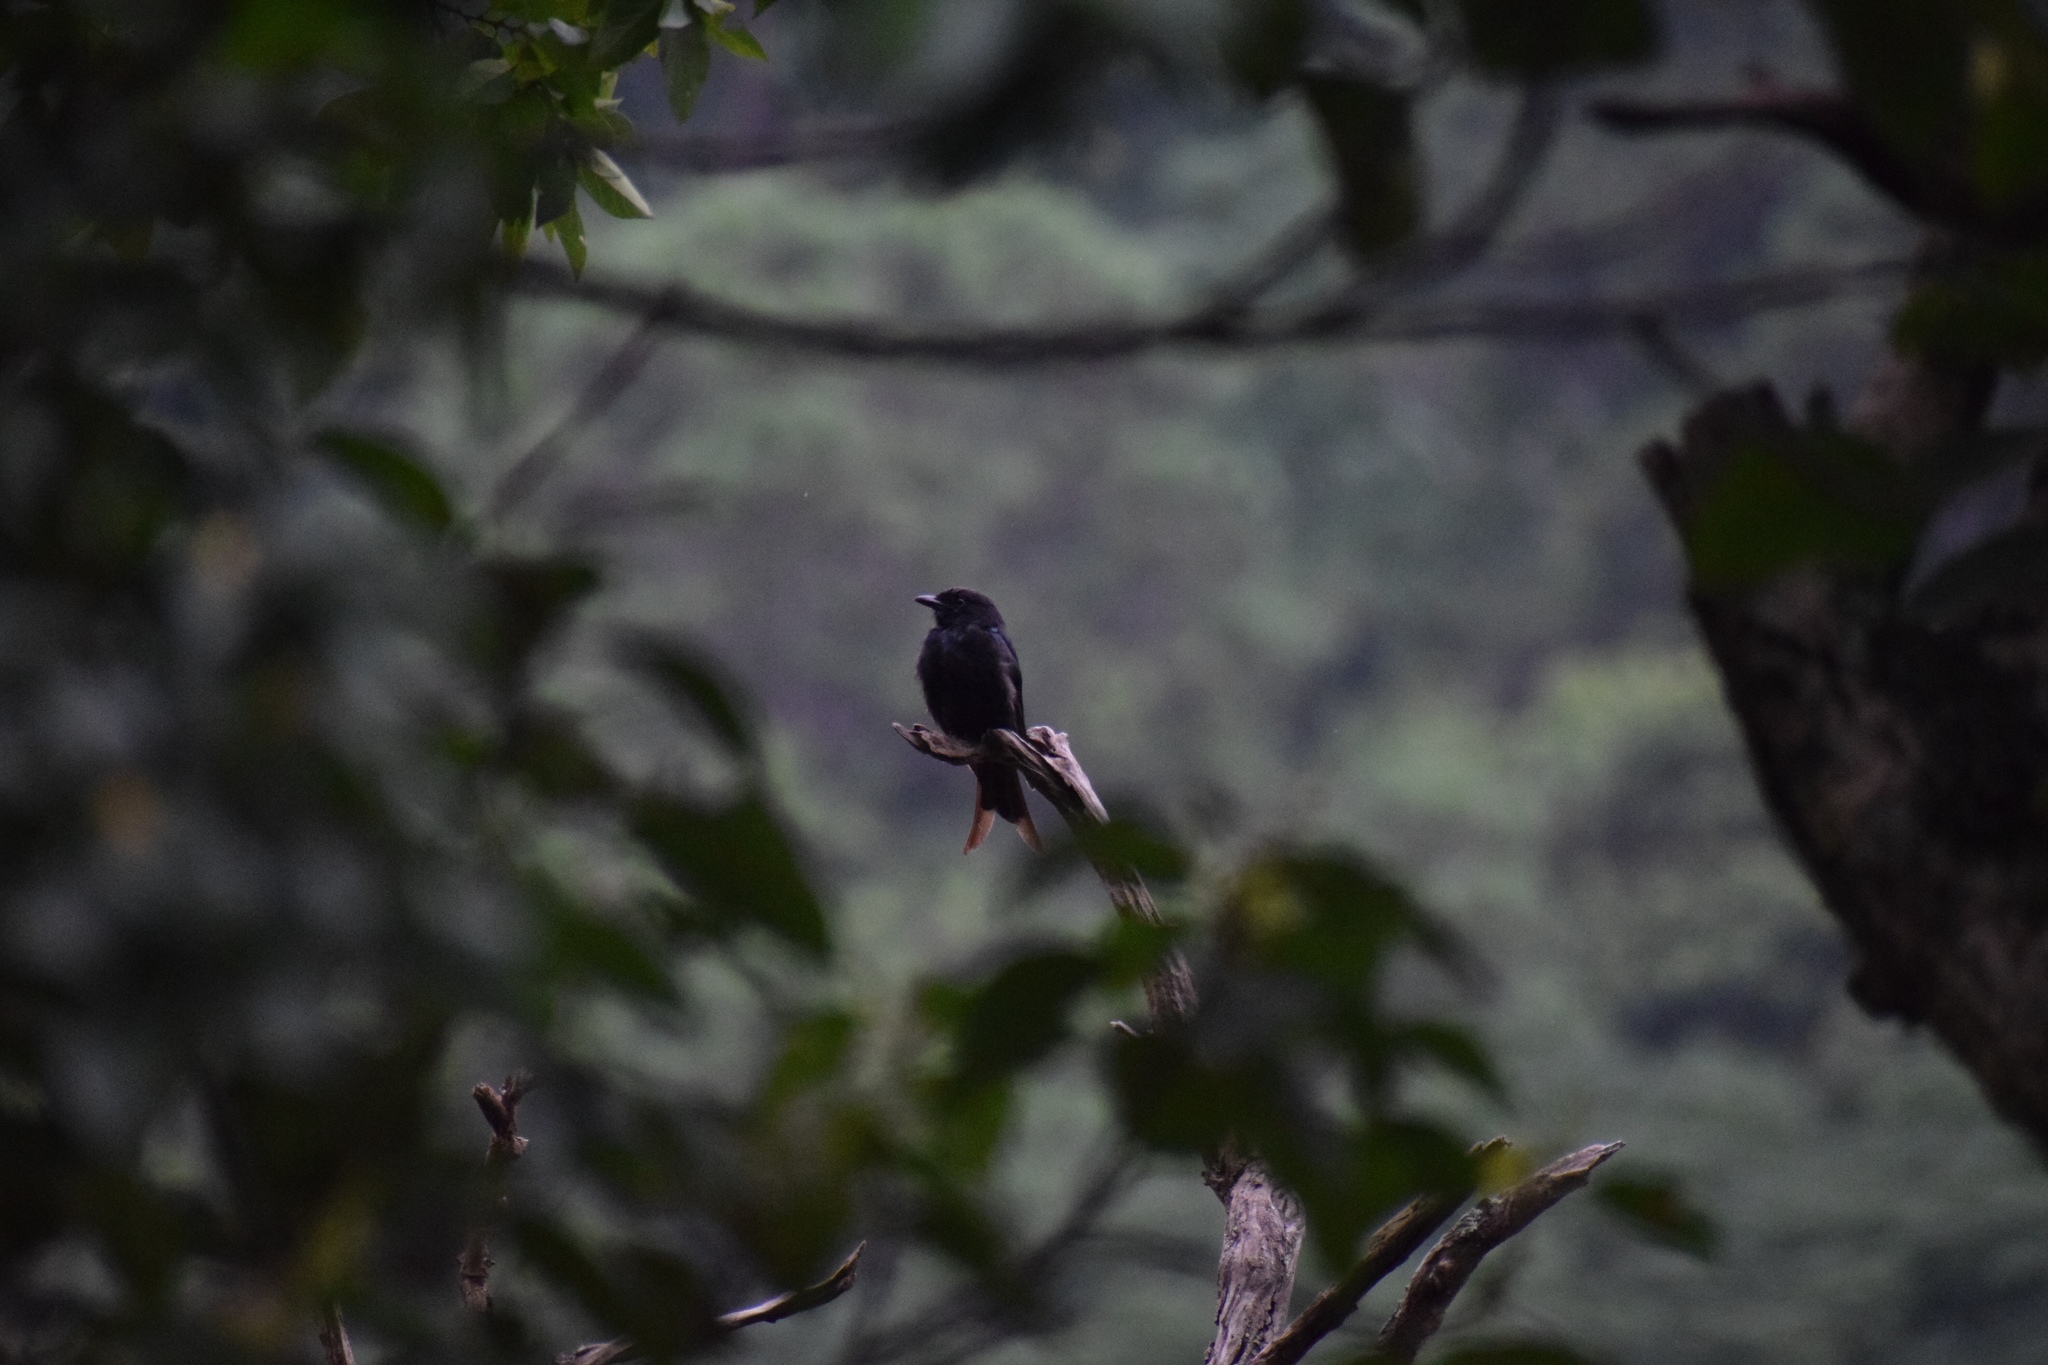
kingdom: Animalia
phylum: Chordata
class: Aves
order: Passeriformes
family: Dicruridae
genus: Dicrurus
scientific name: Dicrurus adsimilis
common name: Fork-tailed drongo
